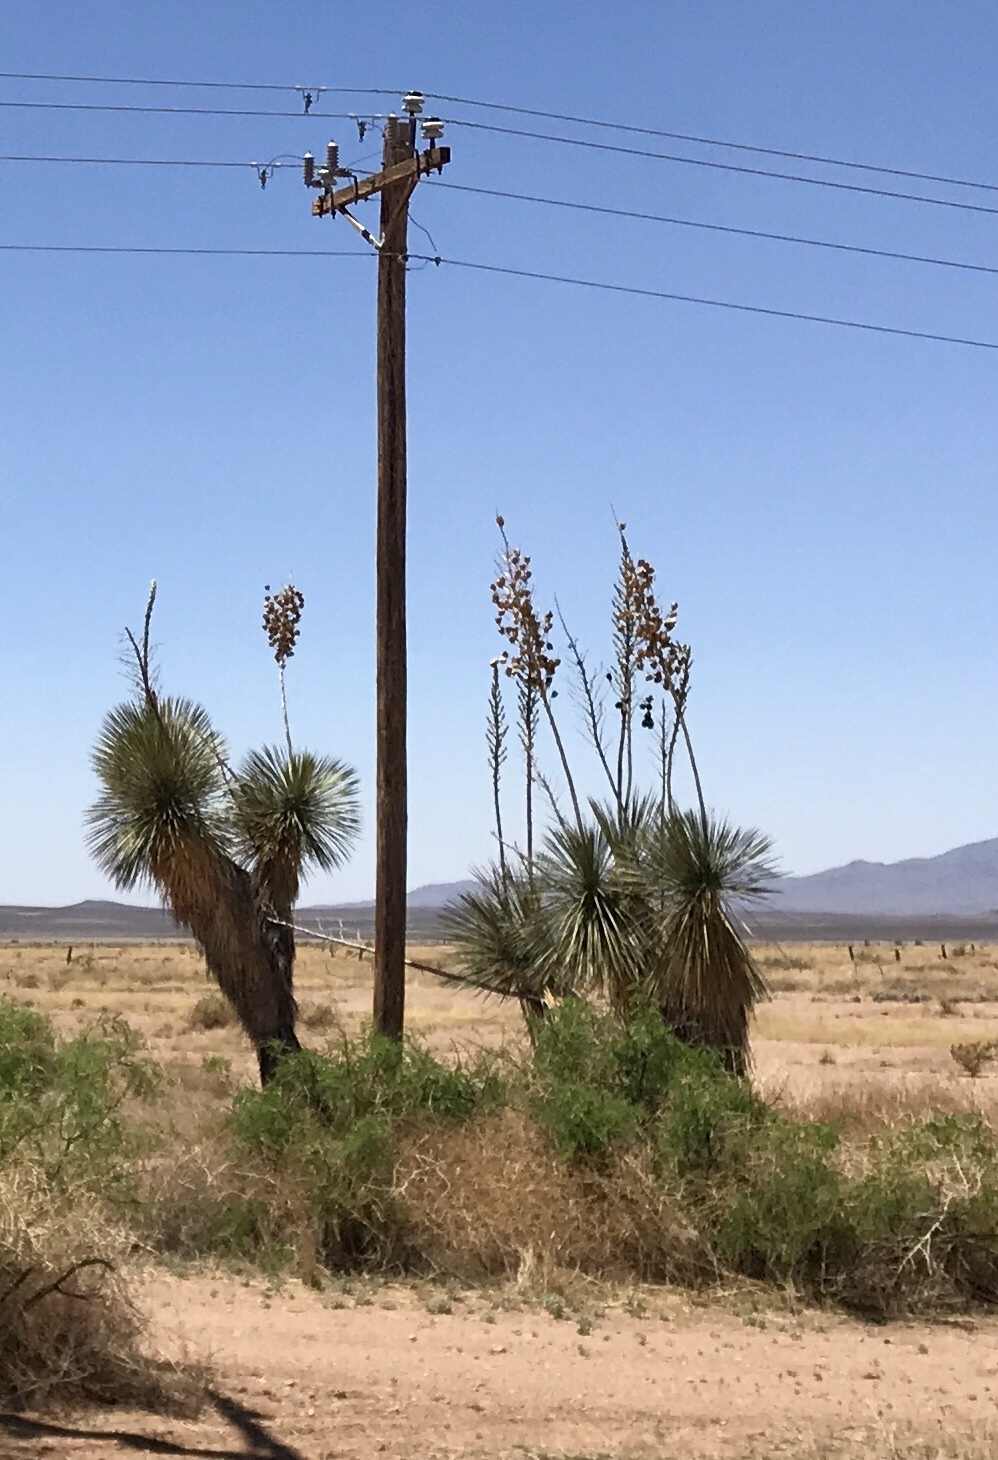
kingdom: Plantae
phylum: Tracheophyta
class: Liliopsida
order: Asparagales
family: Asparagaceae
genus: Yucca
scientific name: Yucca elata
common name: Palmella
